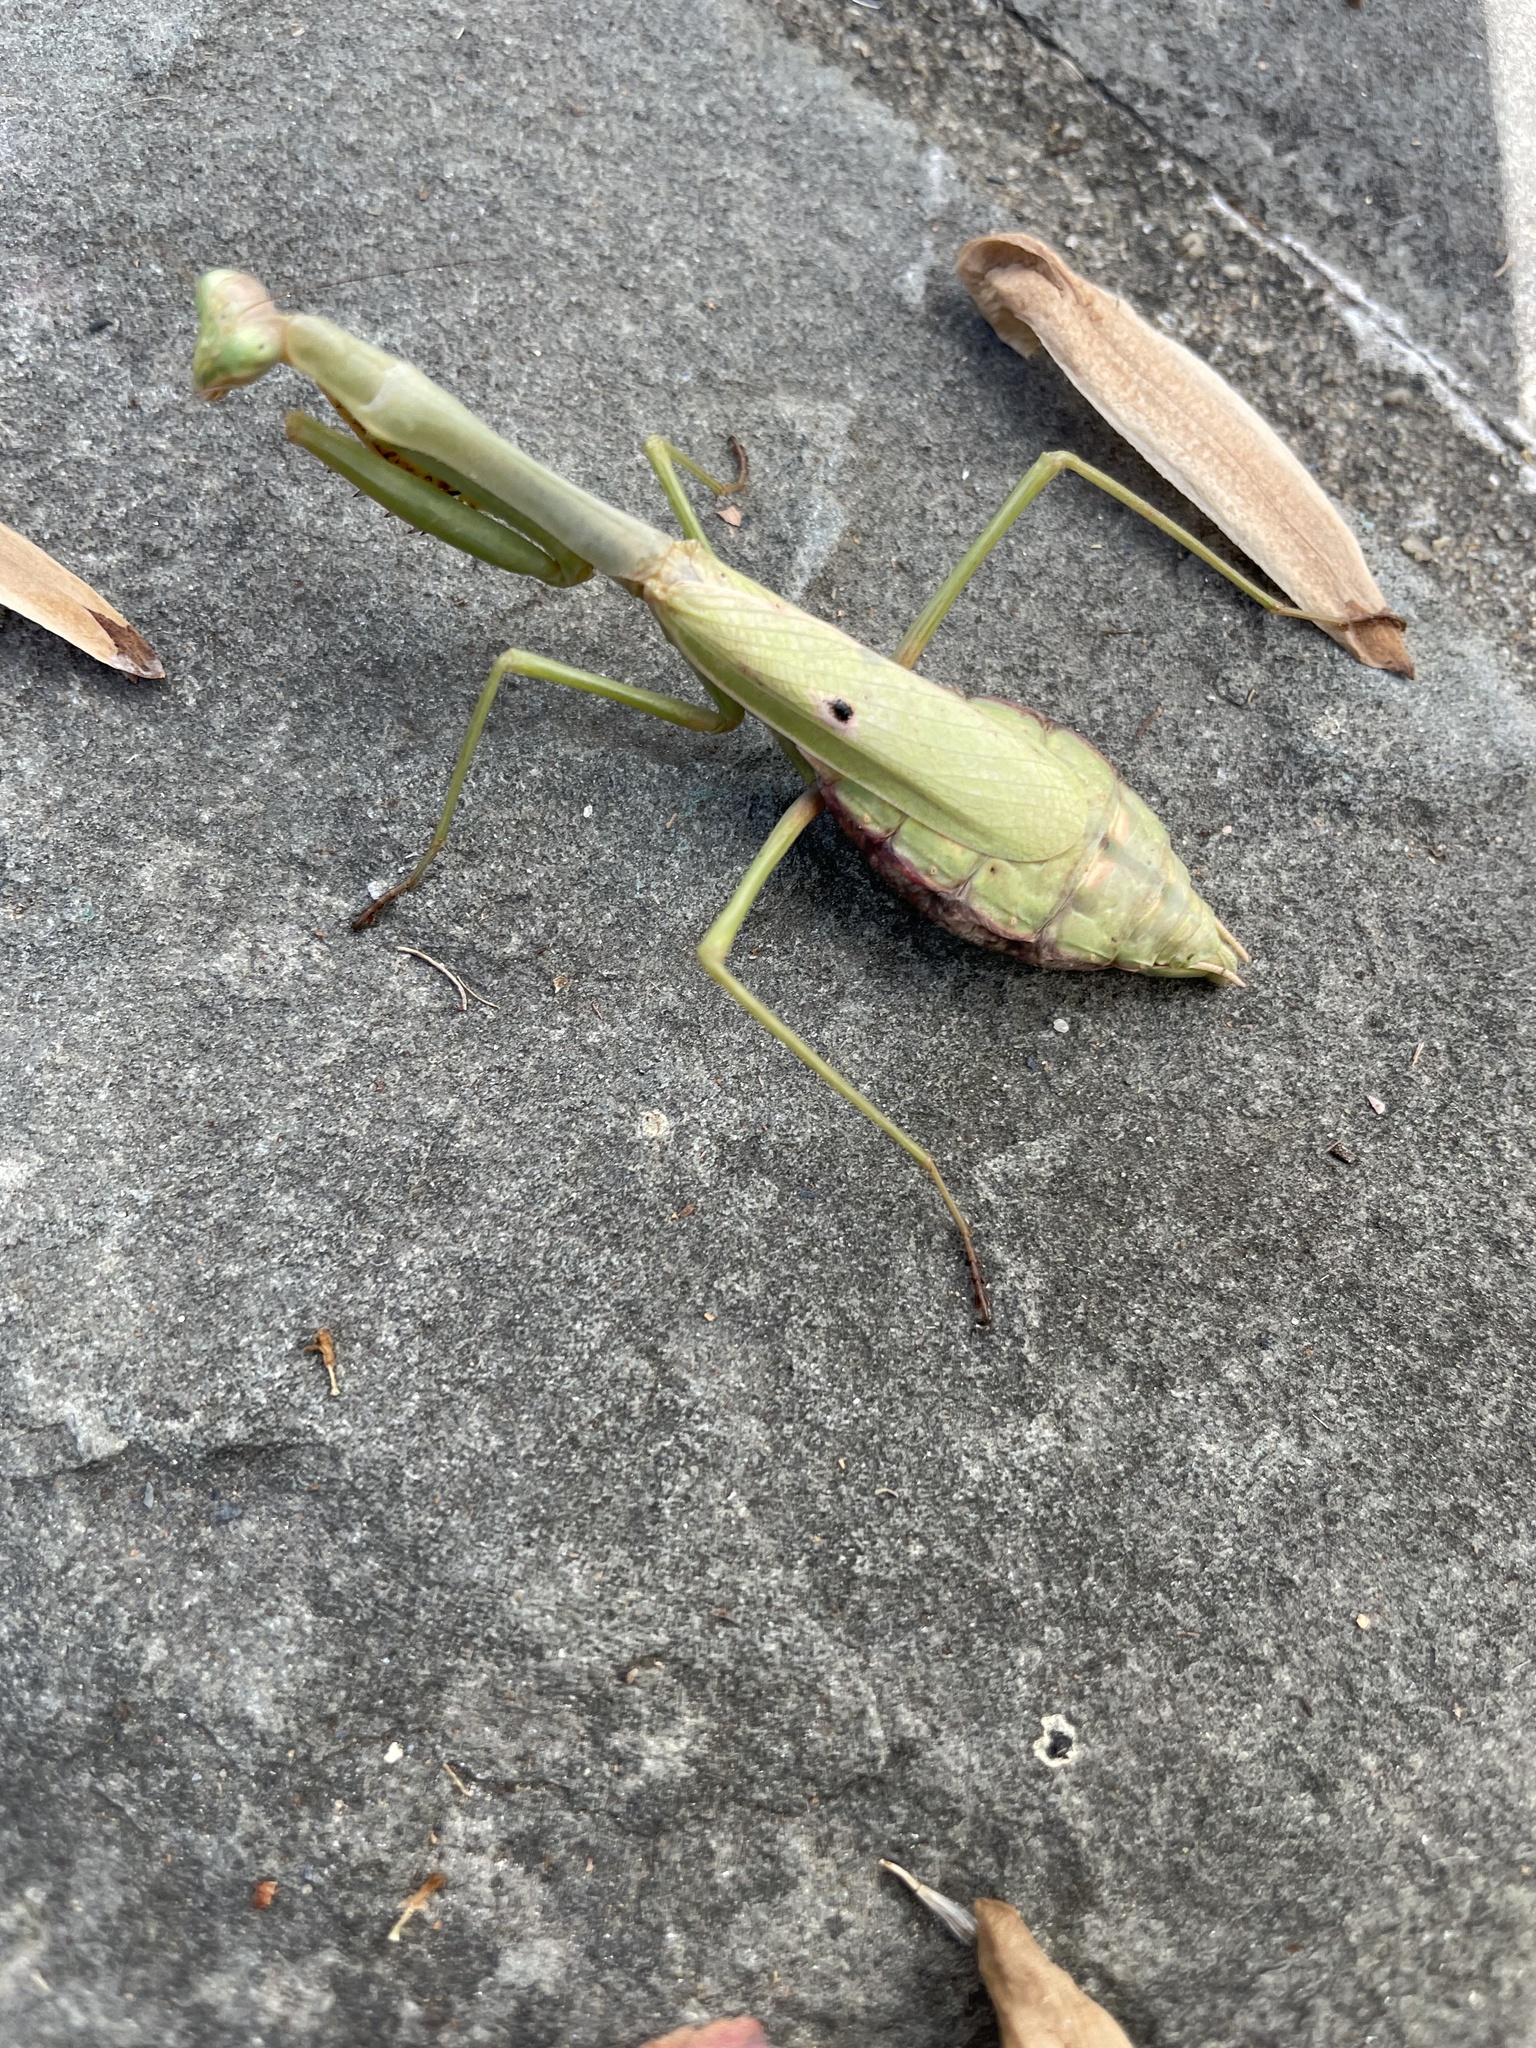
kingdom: Animalia
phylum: Arthropoda
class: Insecta
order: Mantodea
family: Mantidae
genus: Stagmomantis
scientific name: Stagmomantis carolina
